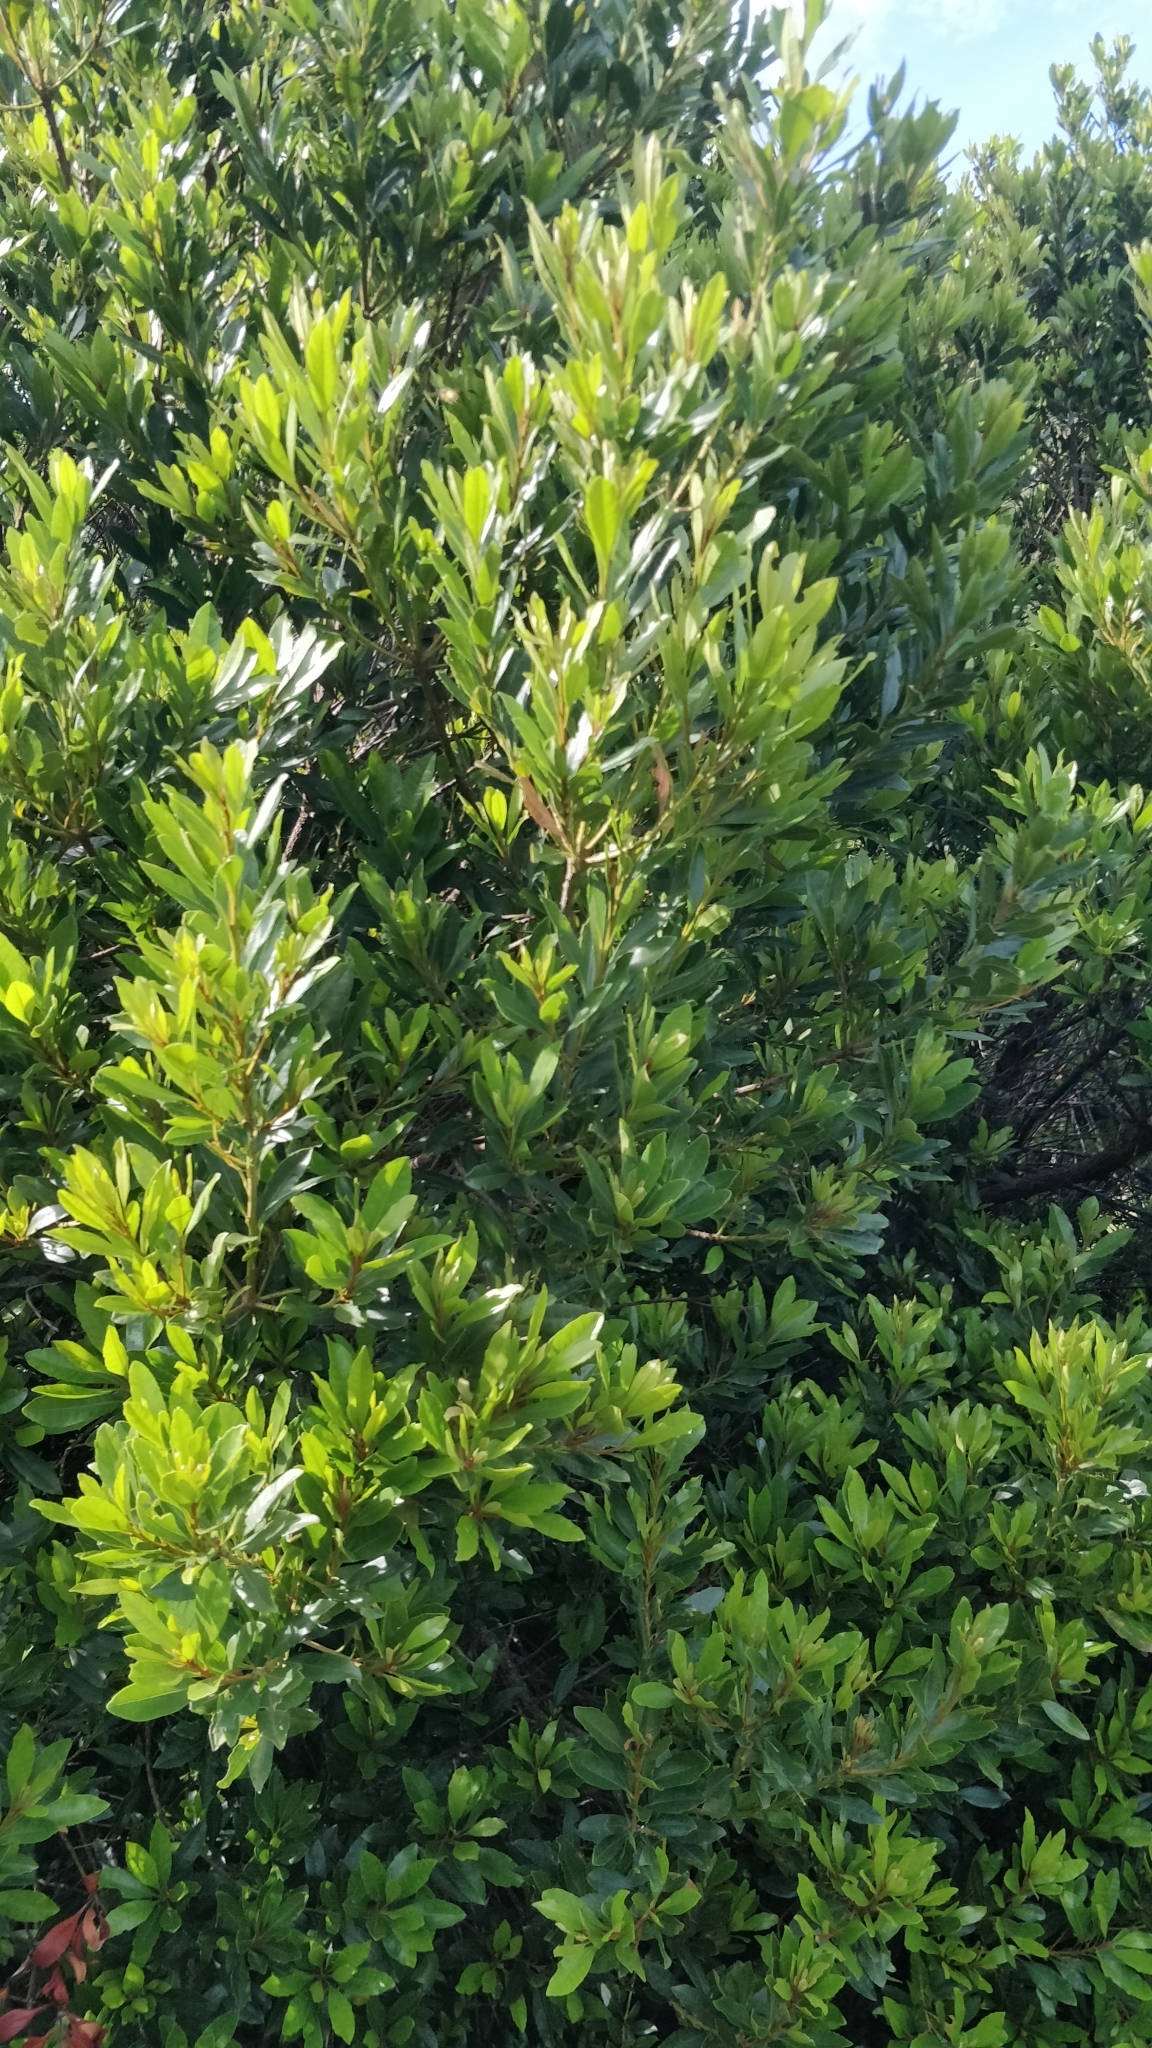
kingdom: Plantae
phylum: Tracheophyta
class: Magnoliopsida
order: Fagales
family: Myricaceae
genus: Morella
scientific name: Morella faya
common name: Firetree
